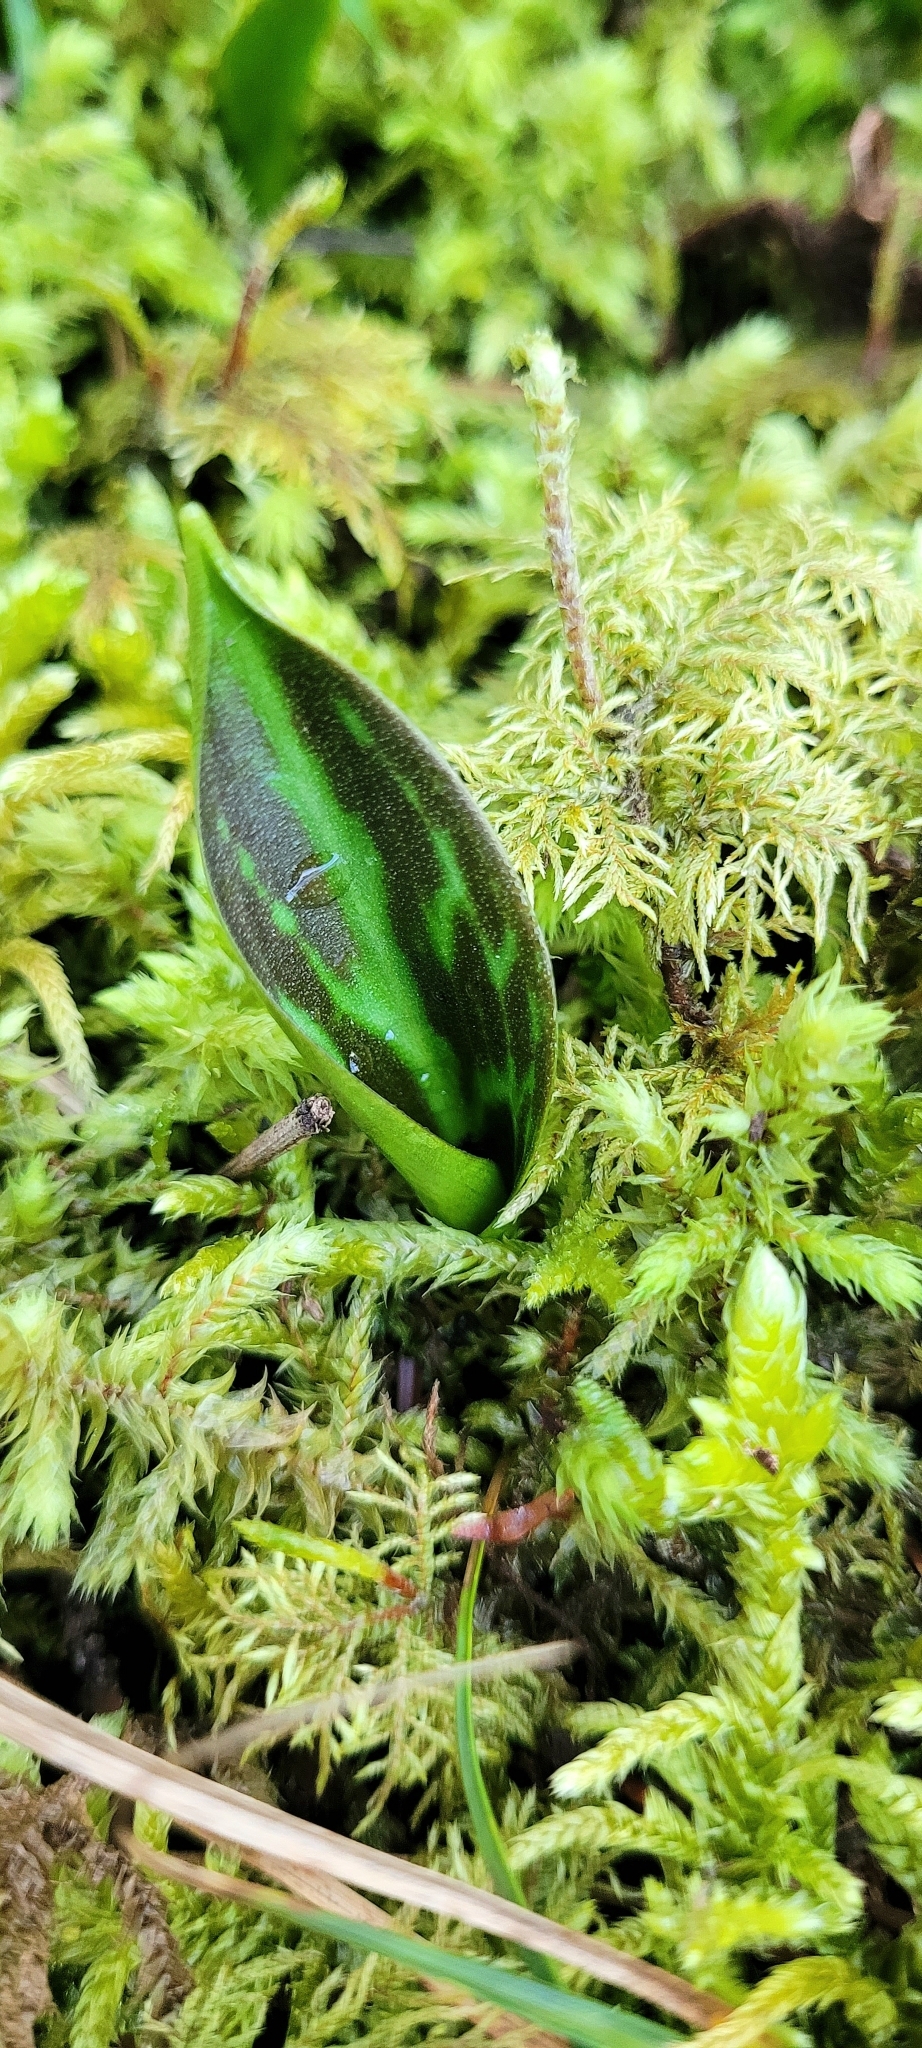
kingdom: Plantae
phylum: Tracheophyta
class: Liliopsida
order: Liliales
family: Liliaceae
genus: Erythronium
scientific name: Erythronium oregonum
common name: Giant adder's-tongue
